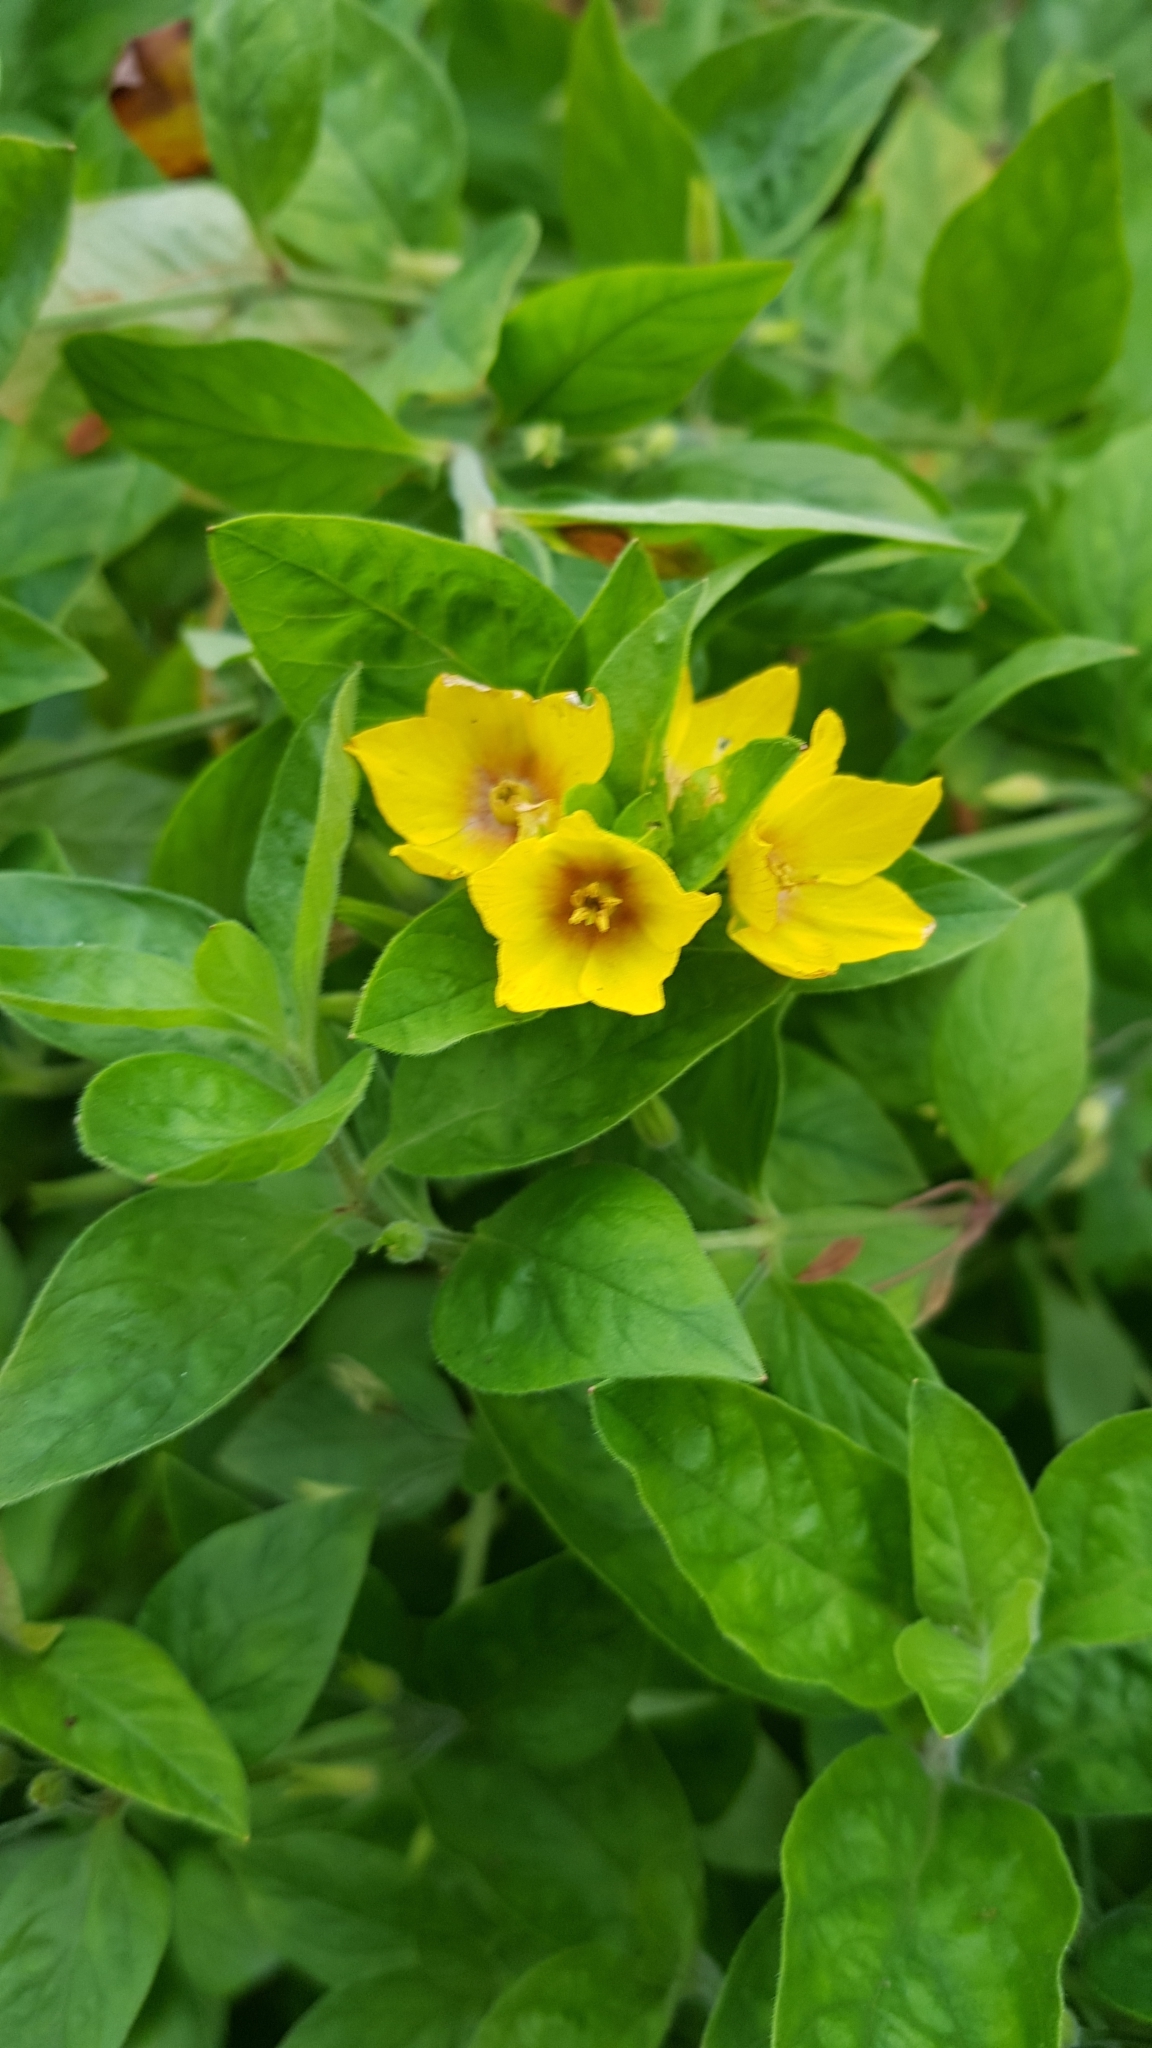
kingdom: Plantae
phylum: Tracheophyta
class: Magnoliopsida
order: Ericales
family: Primulaceae
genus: Lysimachia
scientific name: Lysimachia punctata
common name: Dotted loosestrife
